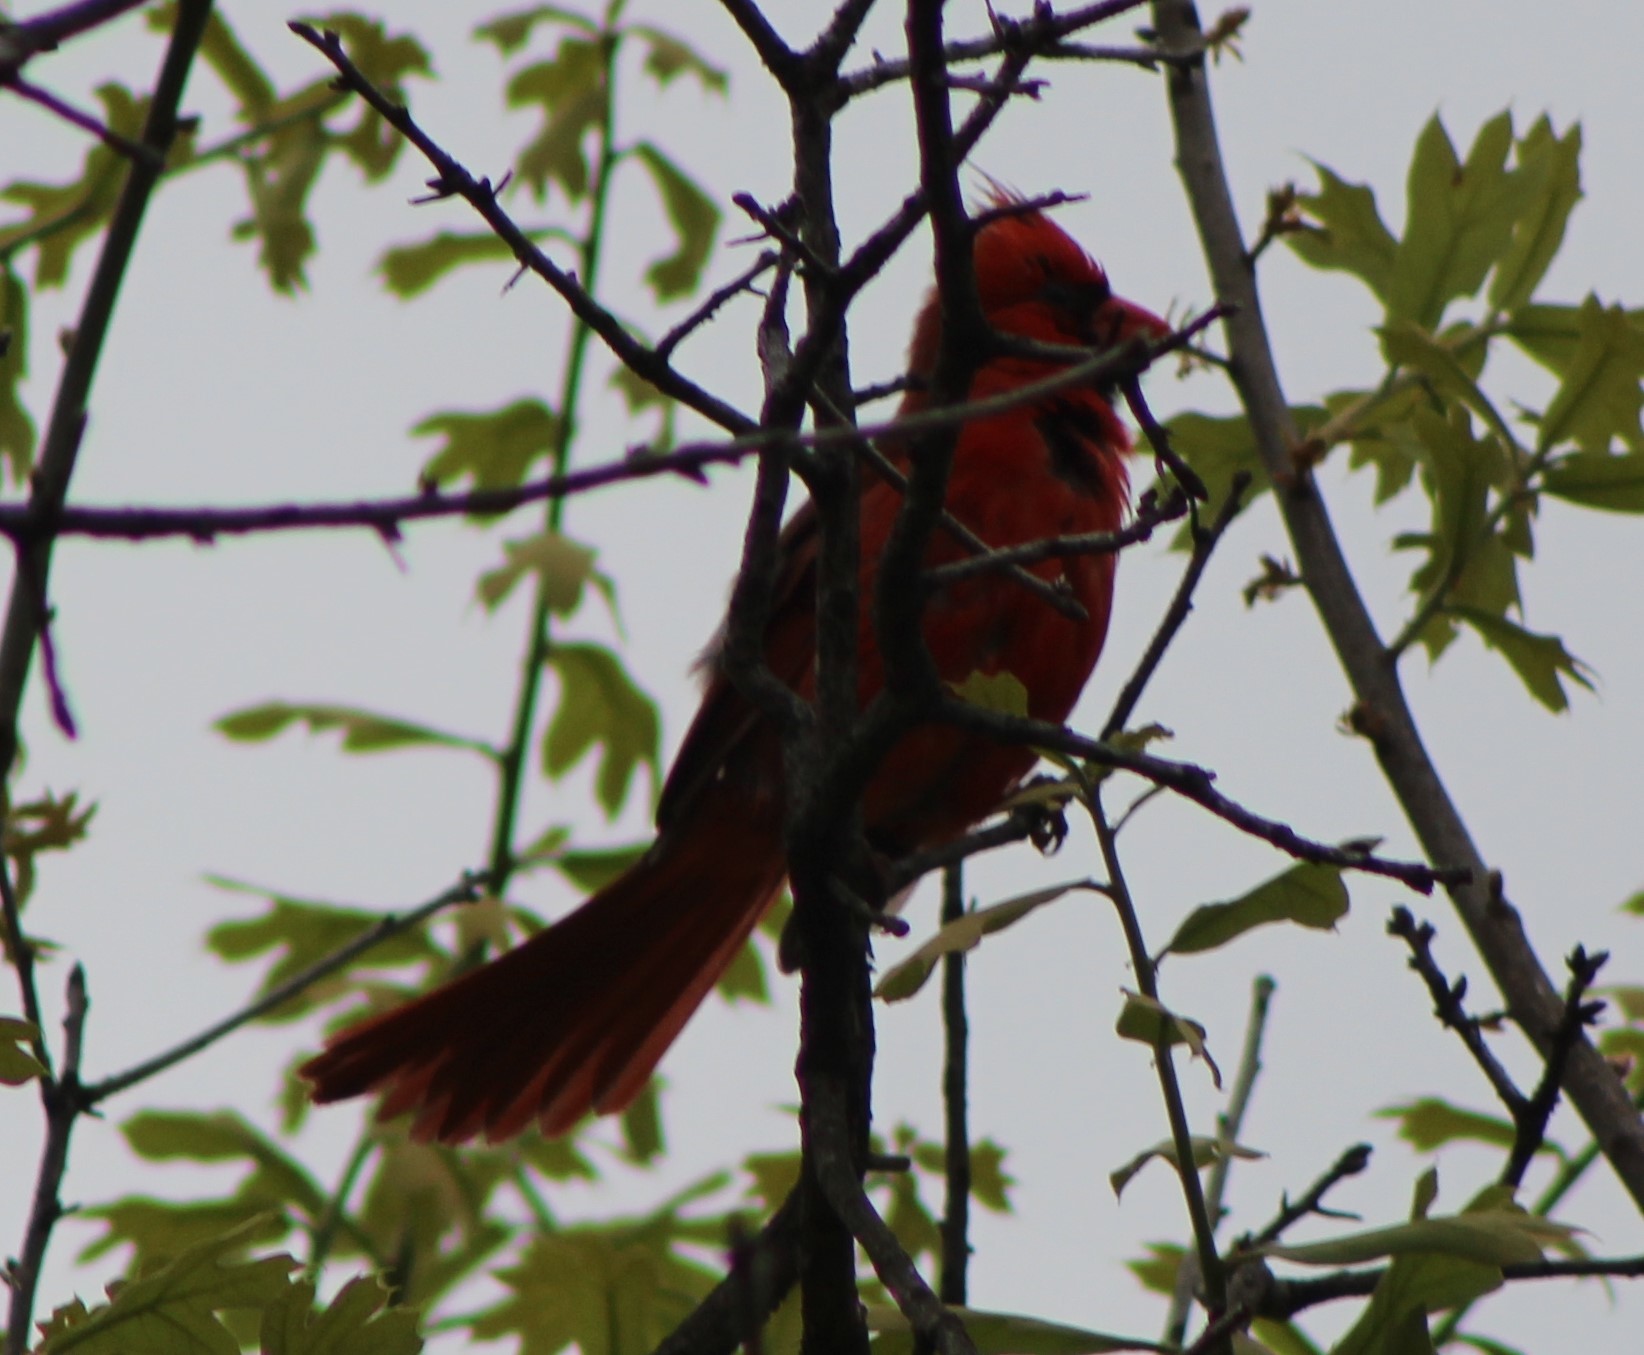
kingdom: Animalia
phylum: Chordata
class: Aves
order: Passeriformes
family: Cardinalidae
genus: Cardinalis
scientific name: Cardinalis cardinalis
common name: Northern cardinal
